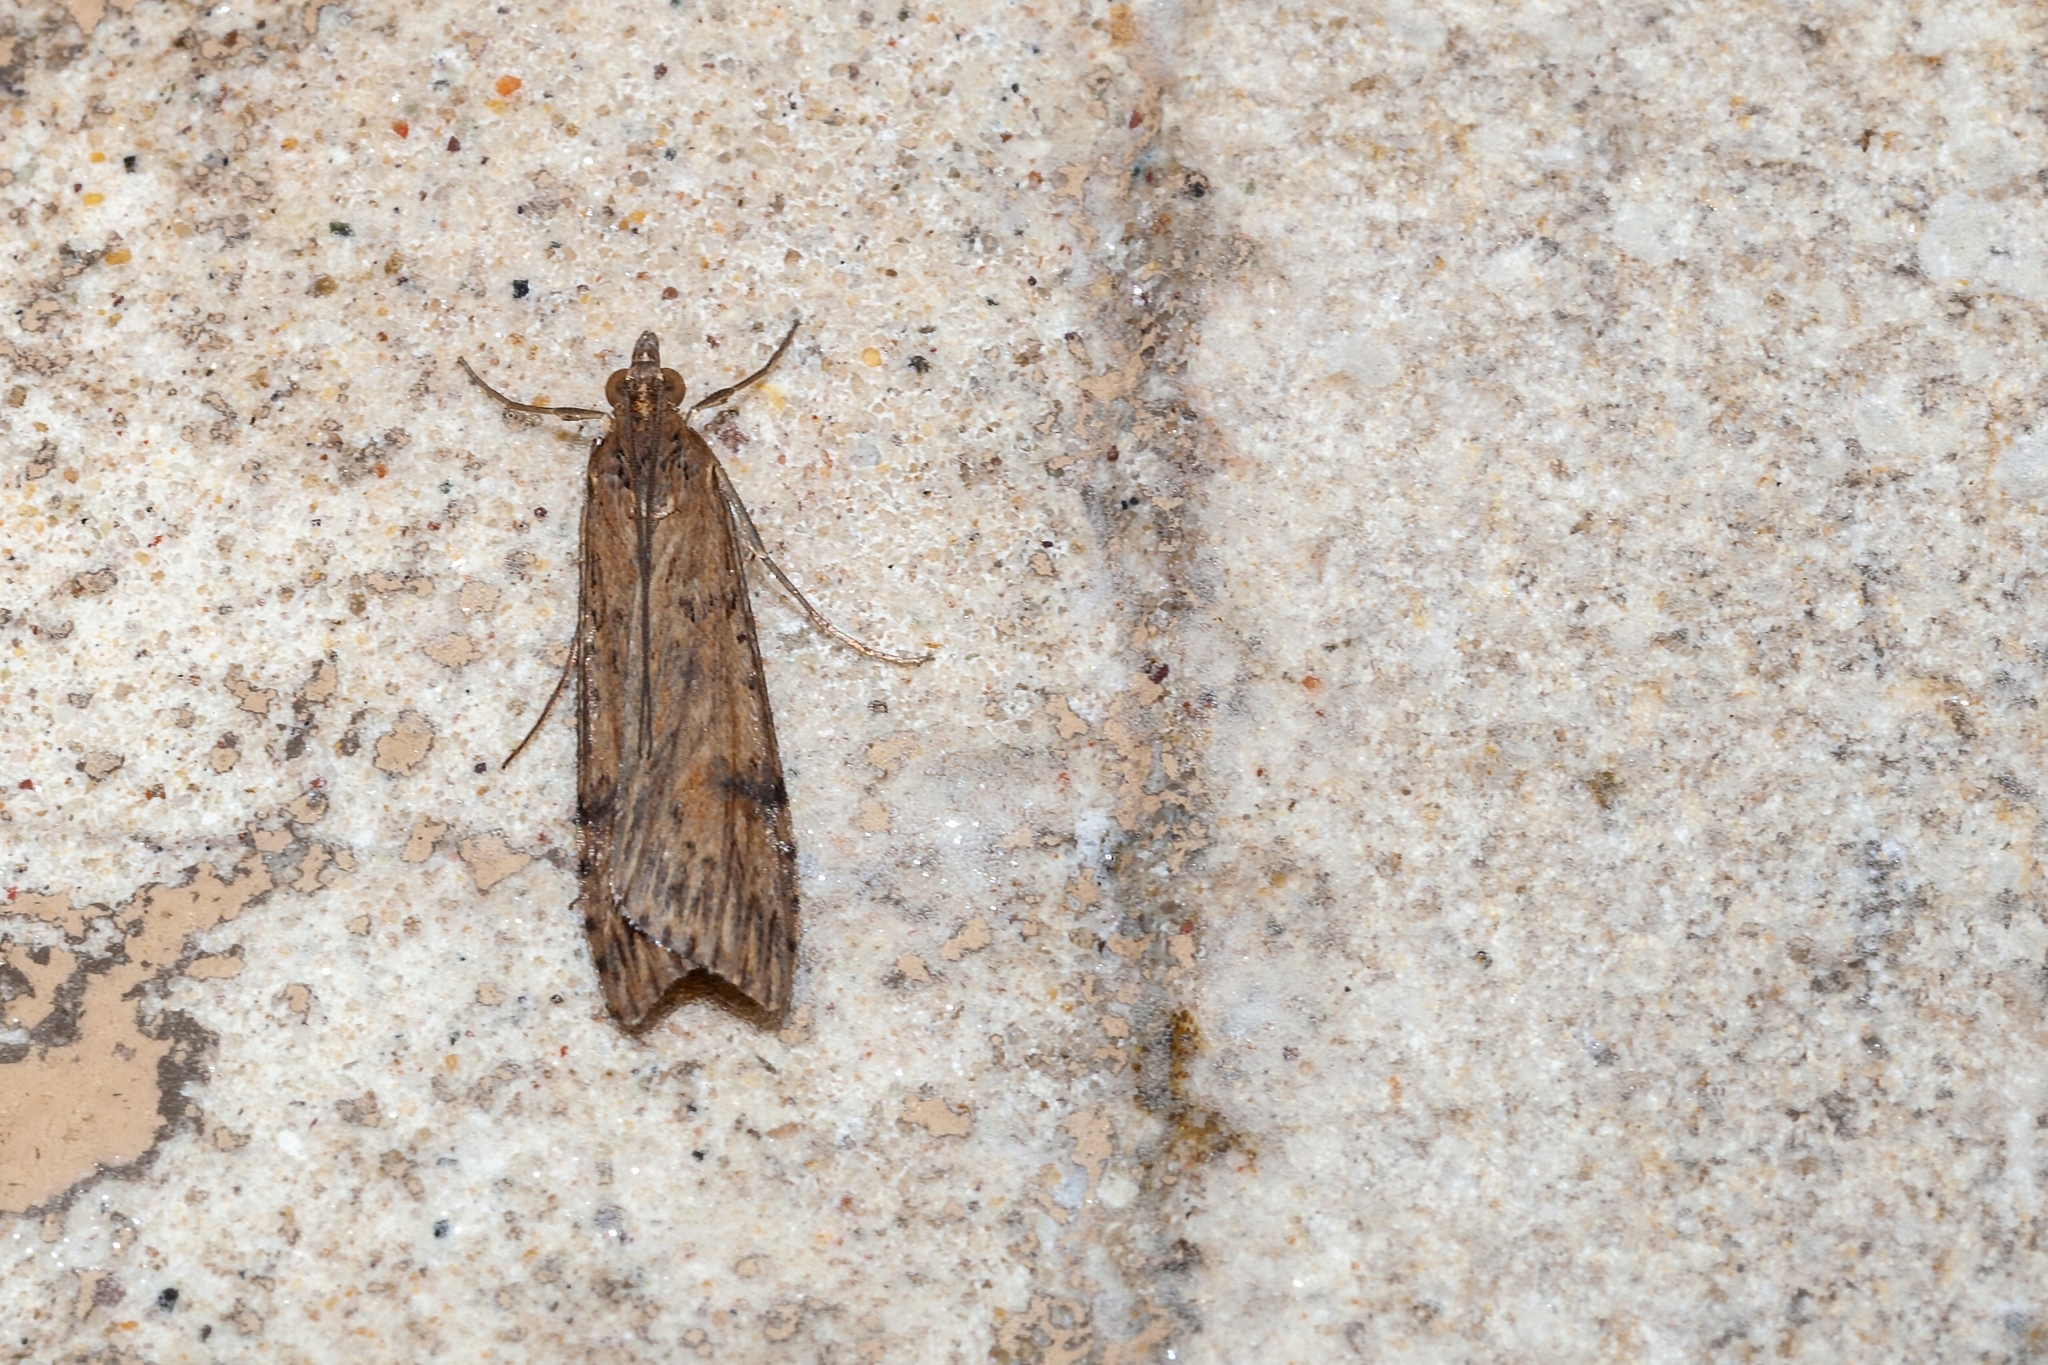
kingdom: Animalia
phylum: Arthropoda
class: Insecta
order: Lepidoptera
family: Crambidae
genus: Nomophila
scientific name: Nomophila nearctica
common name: American rush veneer
